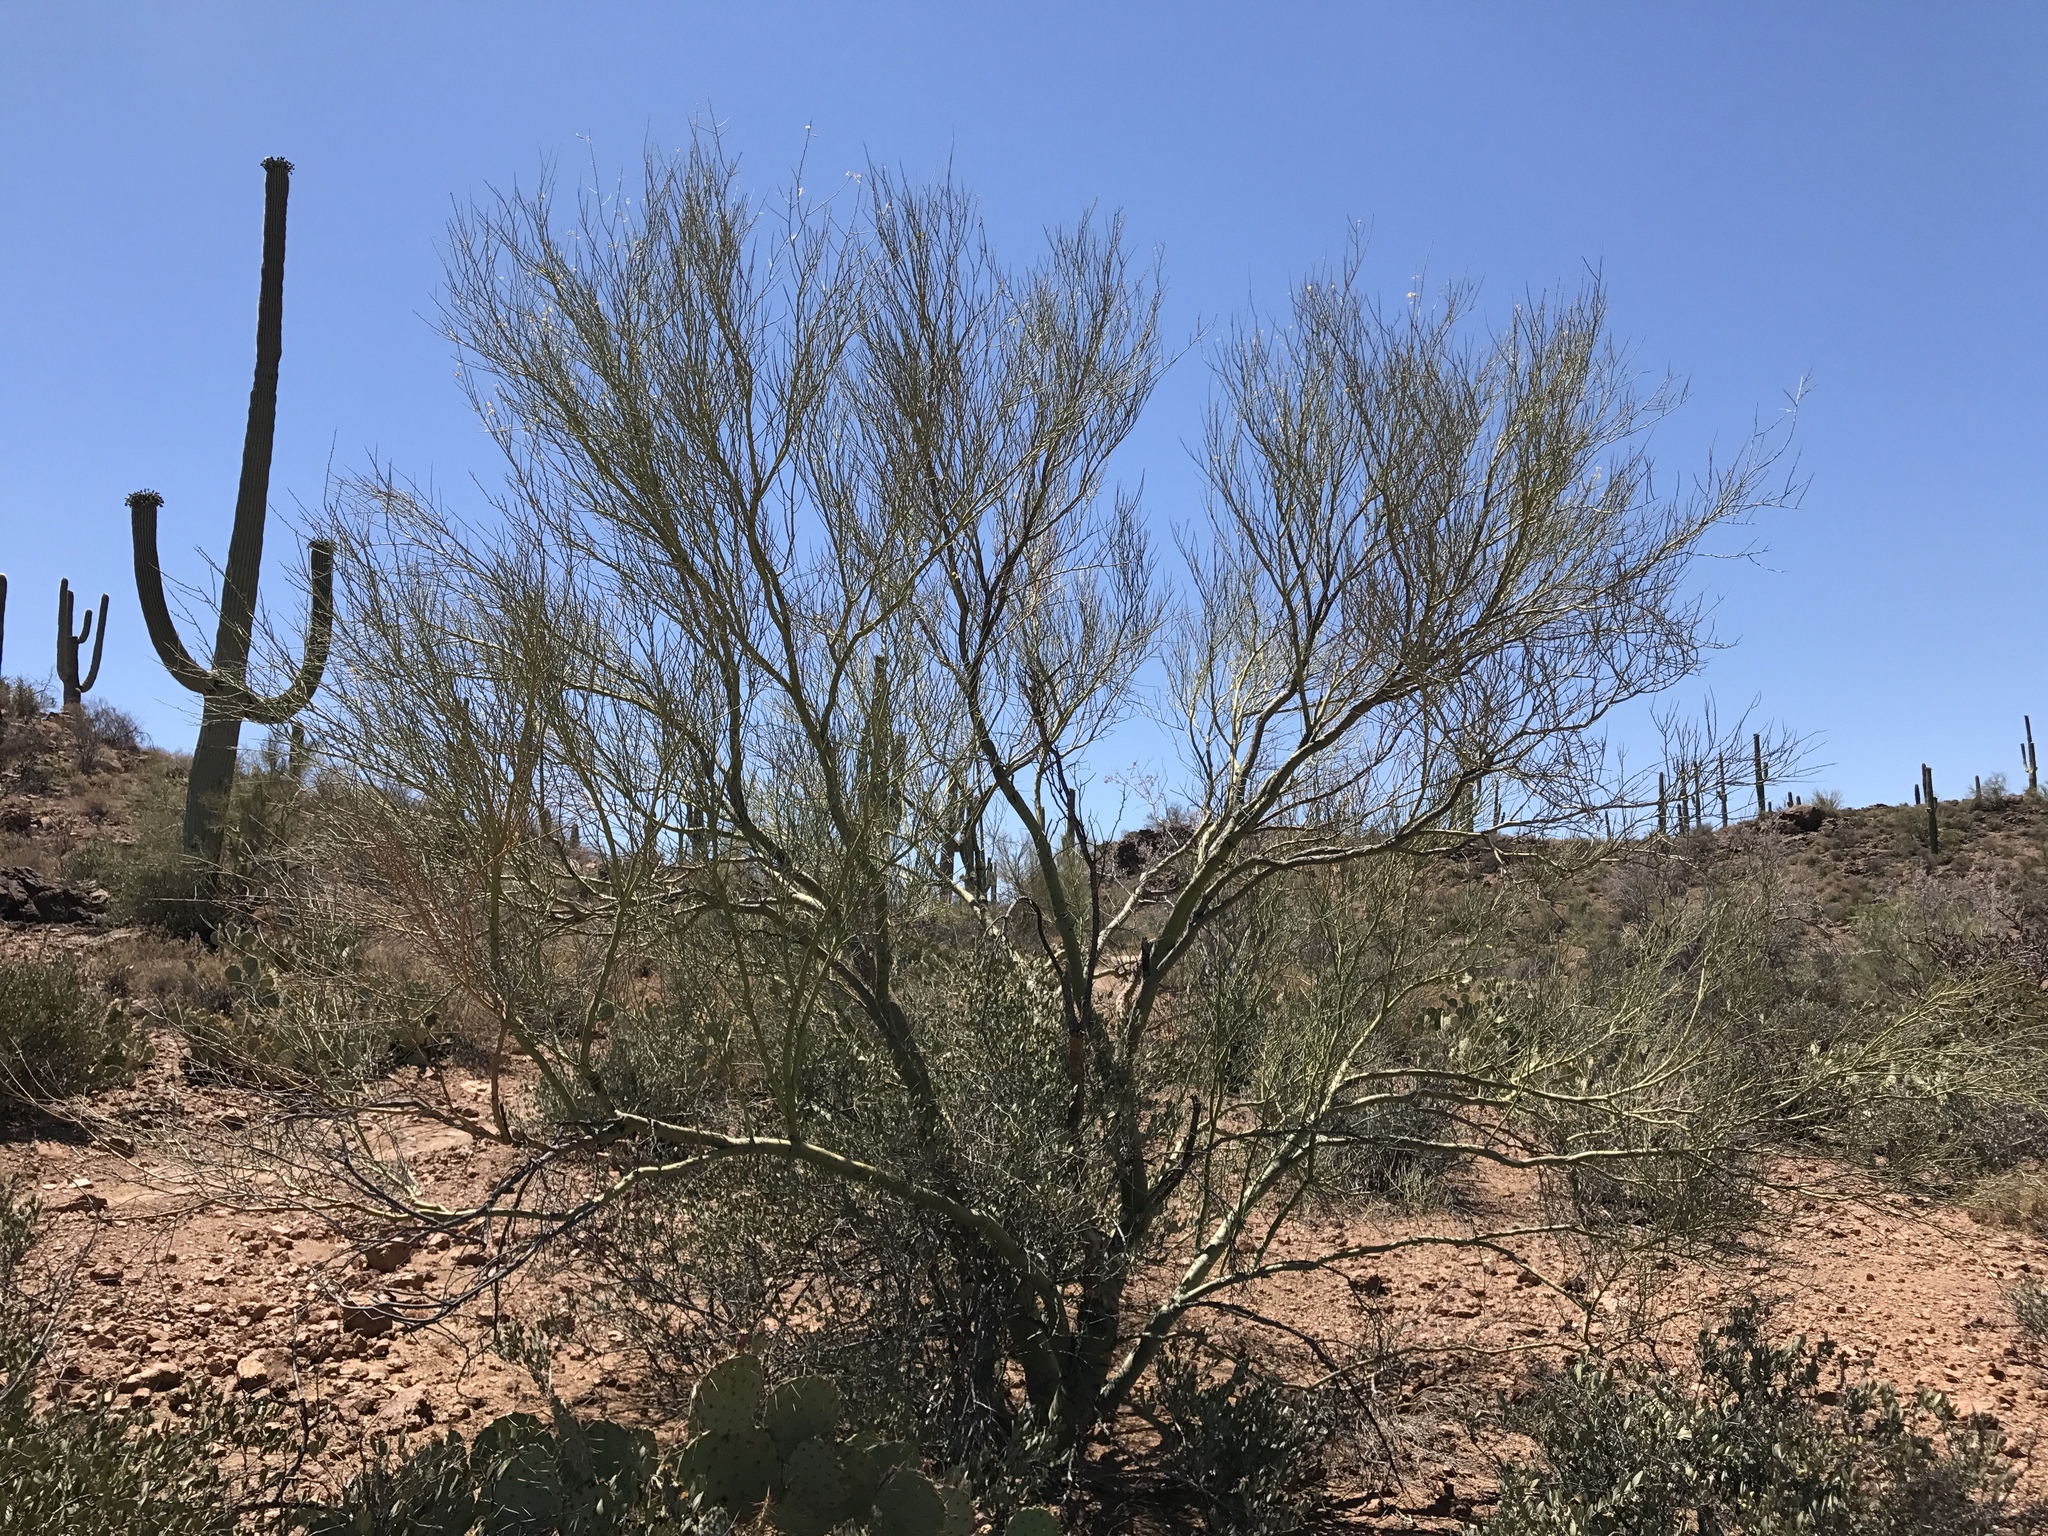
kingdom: Plantae
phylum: Tracheophyta
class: Magnoliopsida
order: Fabales
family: Fabaceae
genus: Parkinsonia
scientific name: Parkinsonia microphylla
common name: Yellow paloverde
